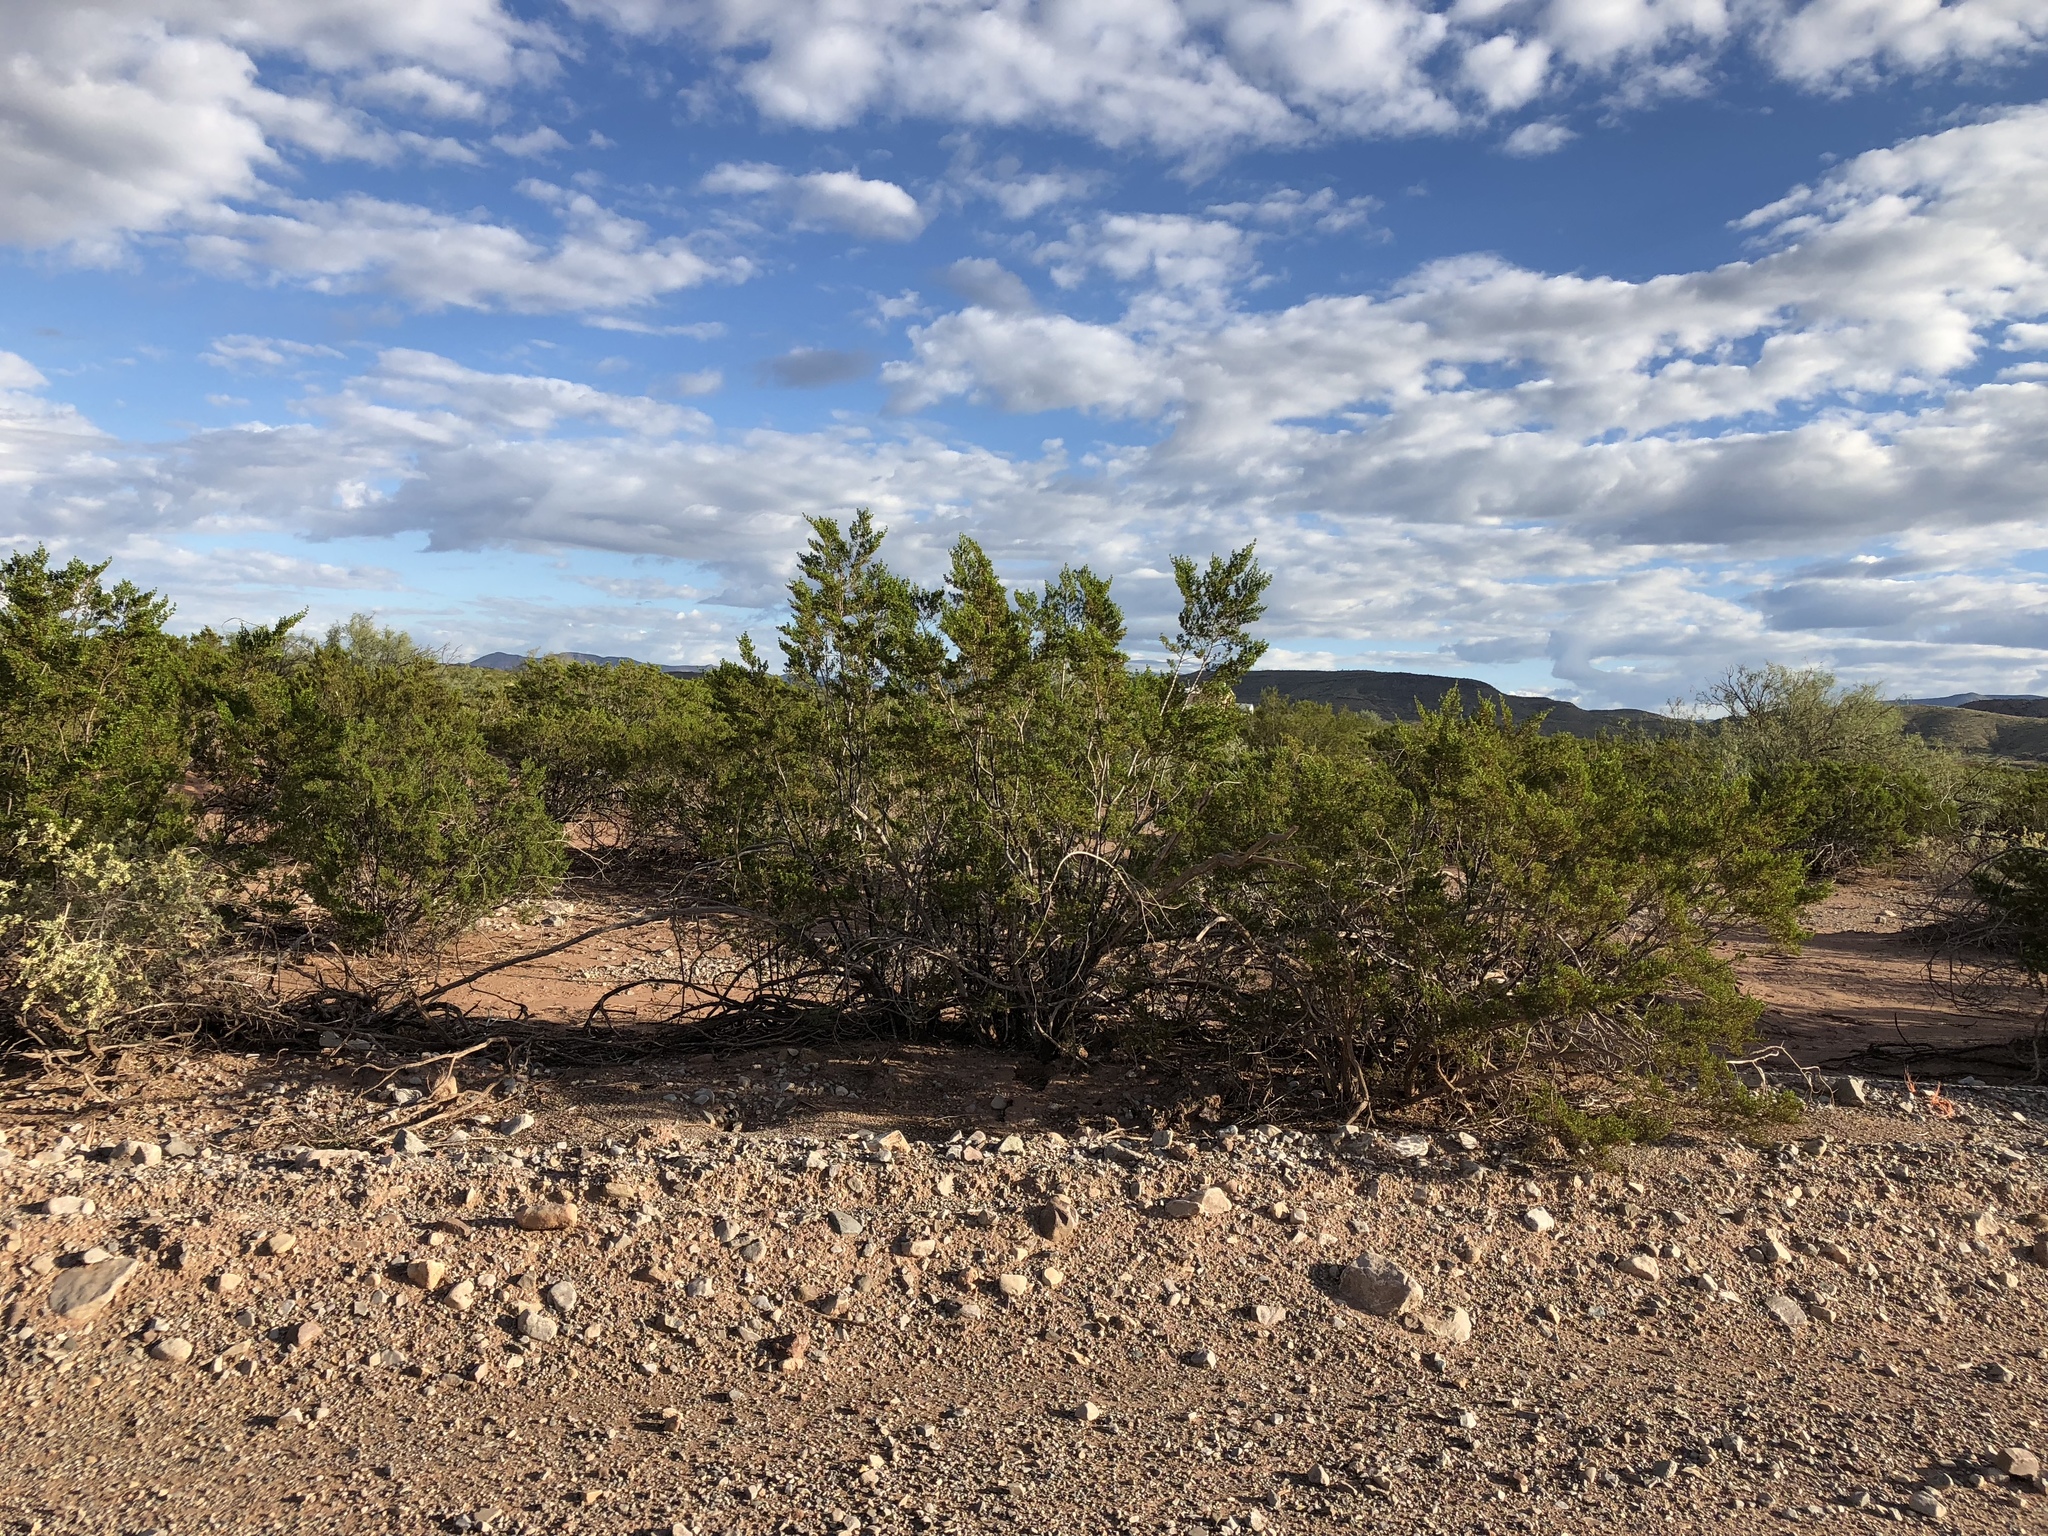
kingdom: Plantae
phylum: Tracheophyta
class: Magnoliopsida
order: Zygophyllales
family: Zygophyllaceae
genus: Larrea
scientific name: Larrea tridentata
